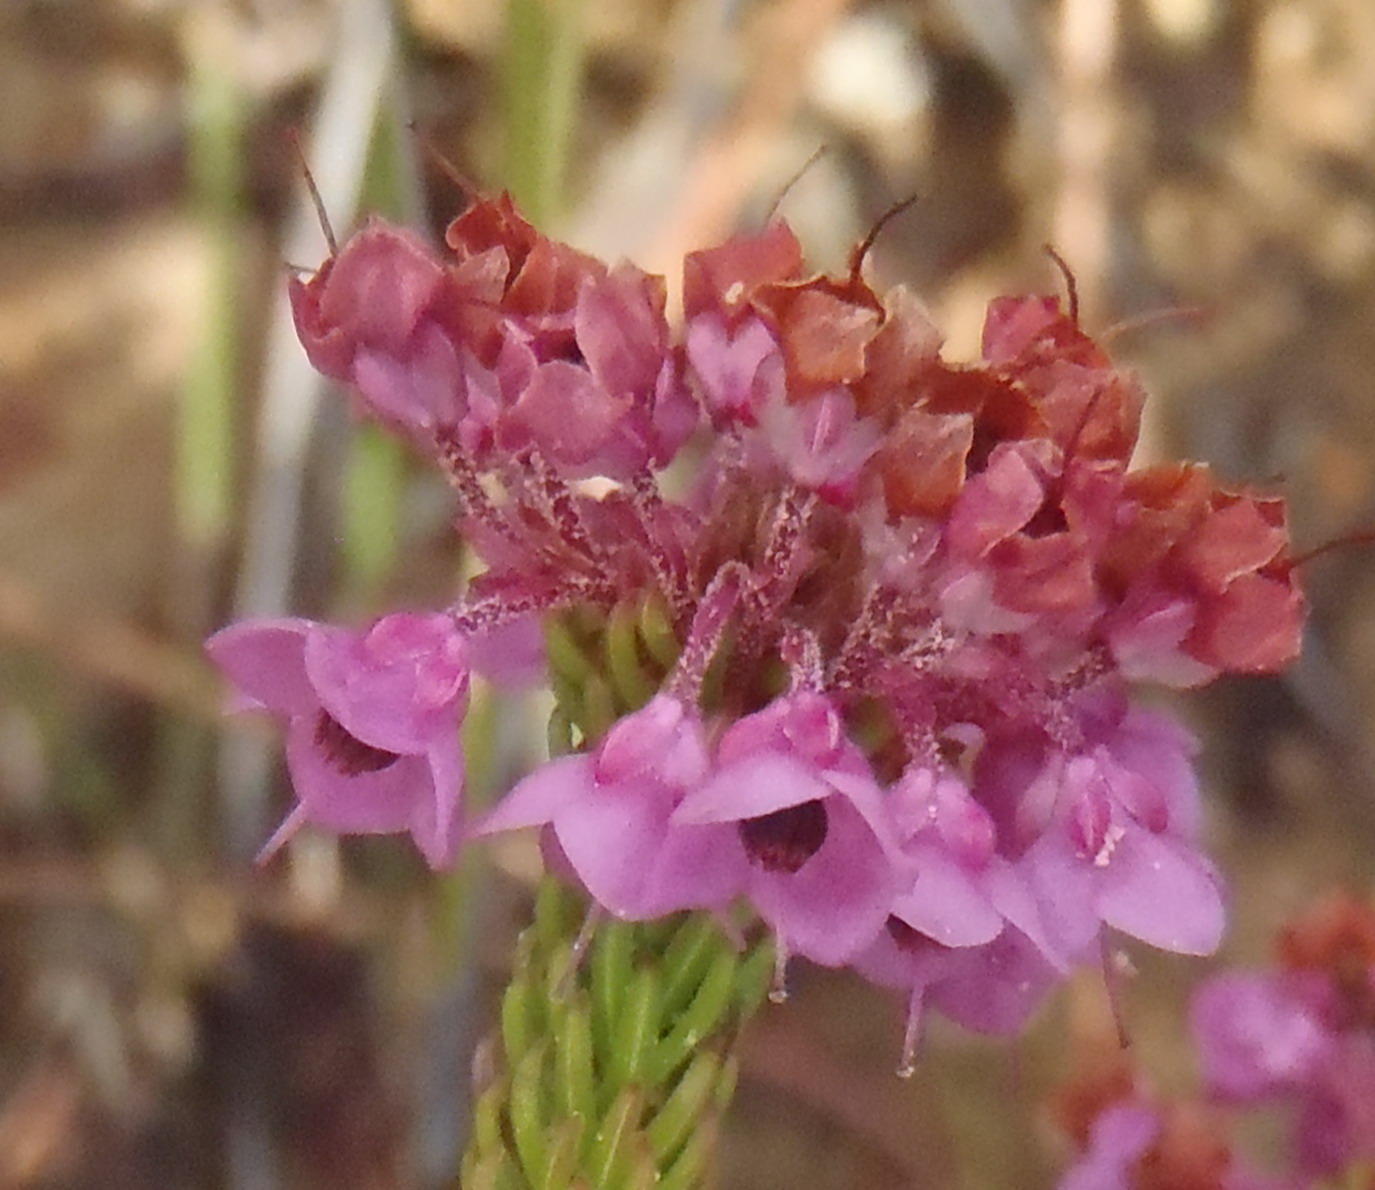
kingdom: Plantae
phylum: Tracheophyta
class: Magnoliopsida
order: Ericales
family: Ericaceae
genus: Erica
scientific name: Erica seriphiifolia
